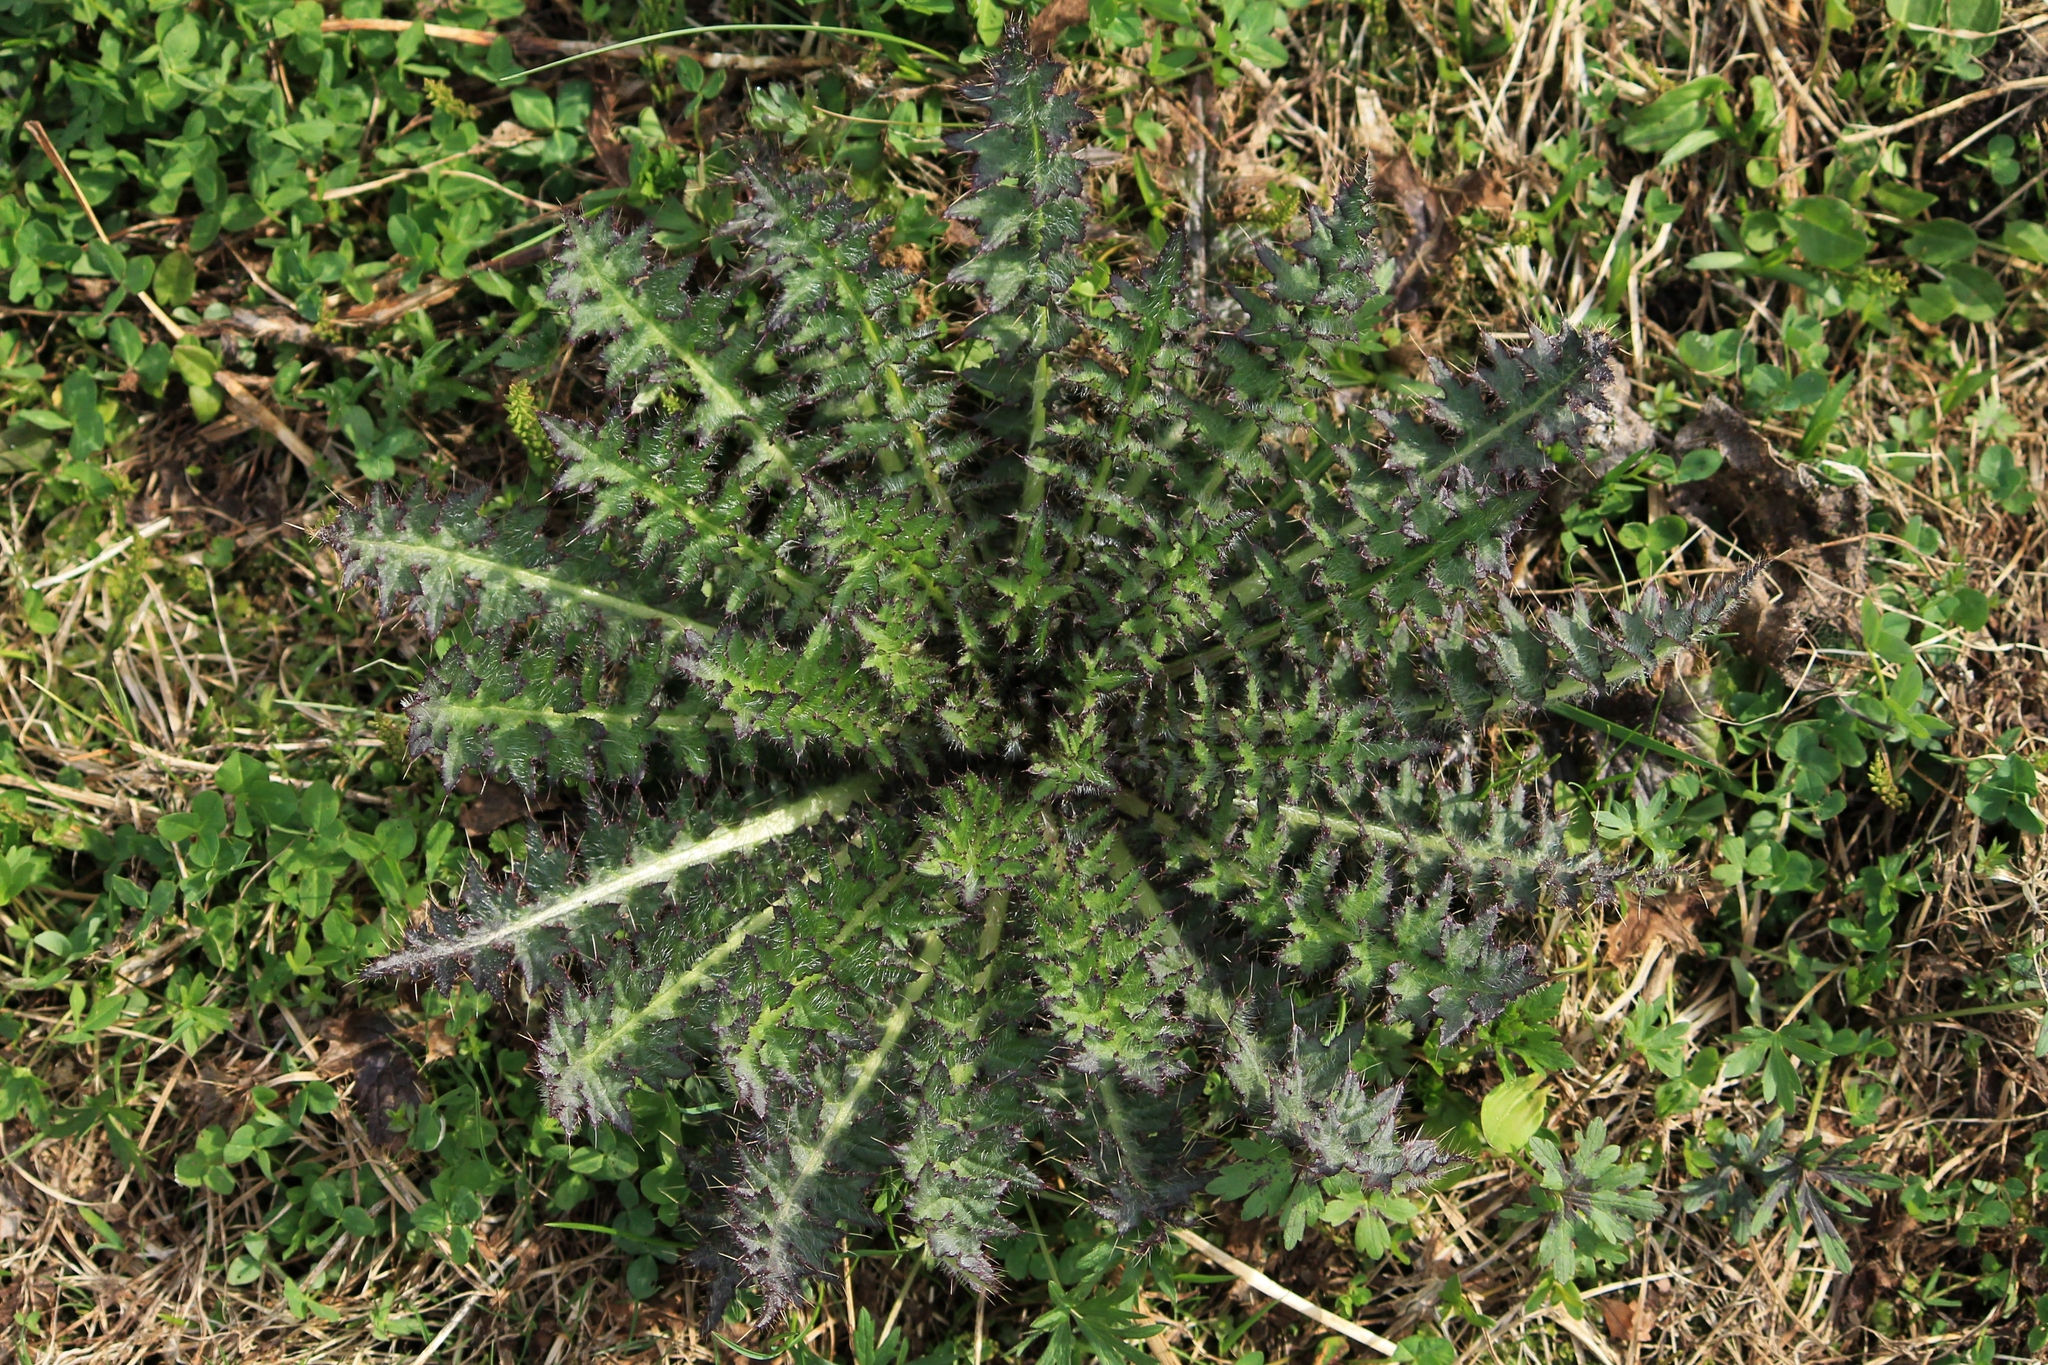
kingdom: Plantae
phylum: Tracheophyta
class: Magnoliopsida
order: Asterales
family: Asteraceae
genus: Cirsium
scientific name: Cirsium palustre
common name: Marsh thistle
